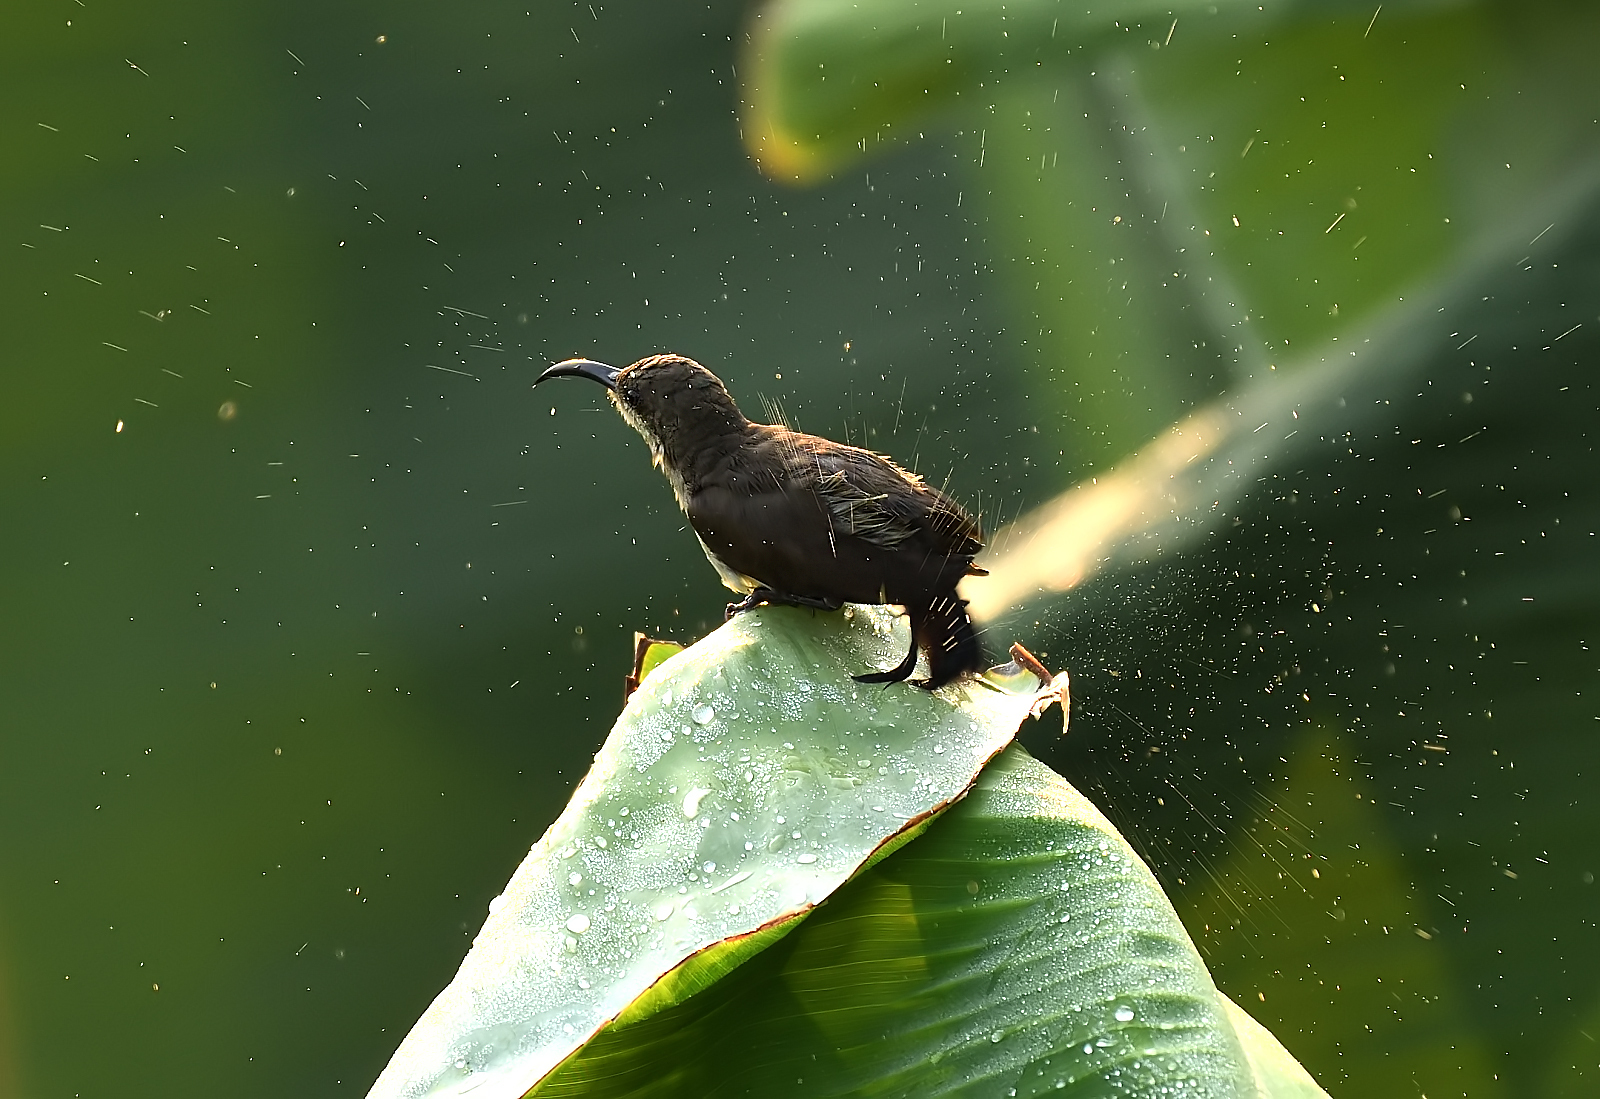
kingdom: Animalia
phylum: Chordata
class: Aves
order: Passeriformes
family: Nectariniidae
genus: Cinnyris
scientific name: Cinnyris lotenius
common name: Loten's sunbird
